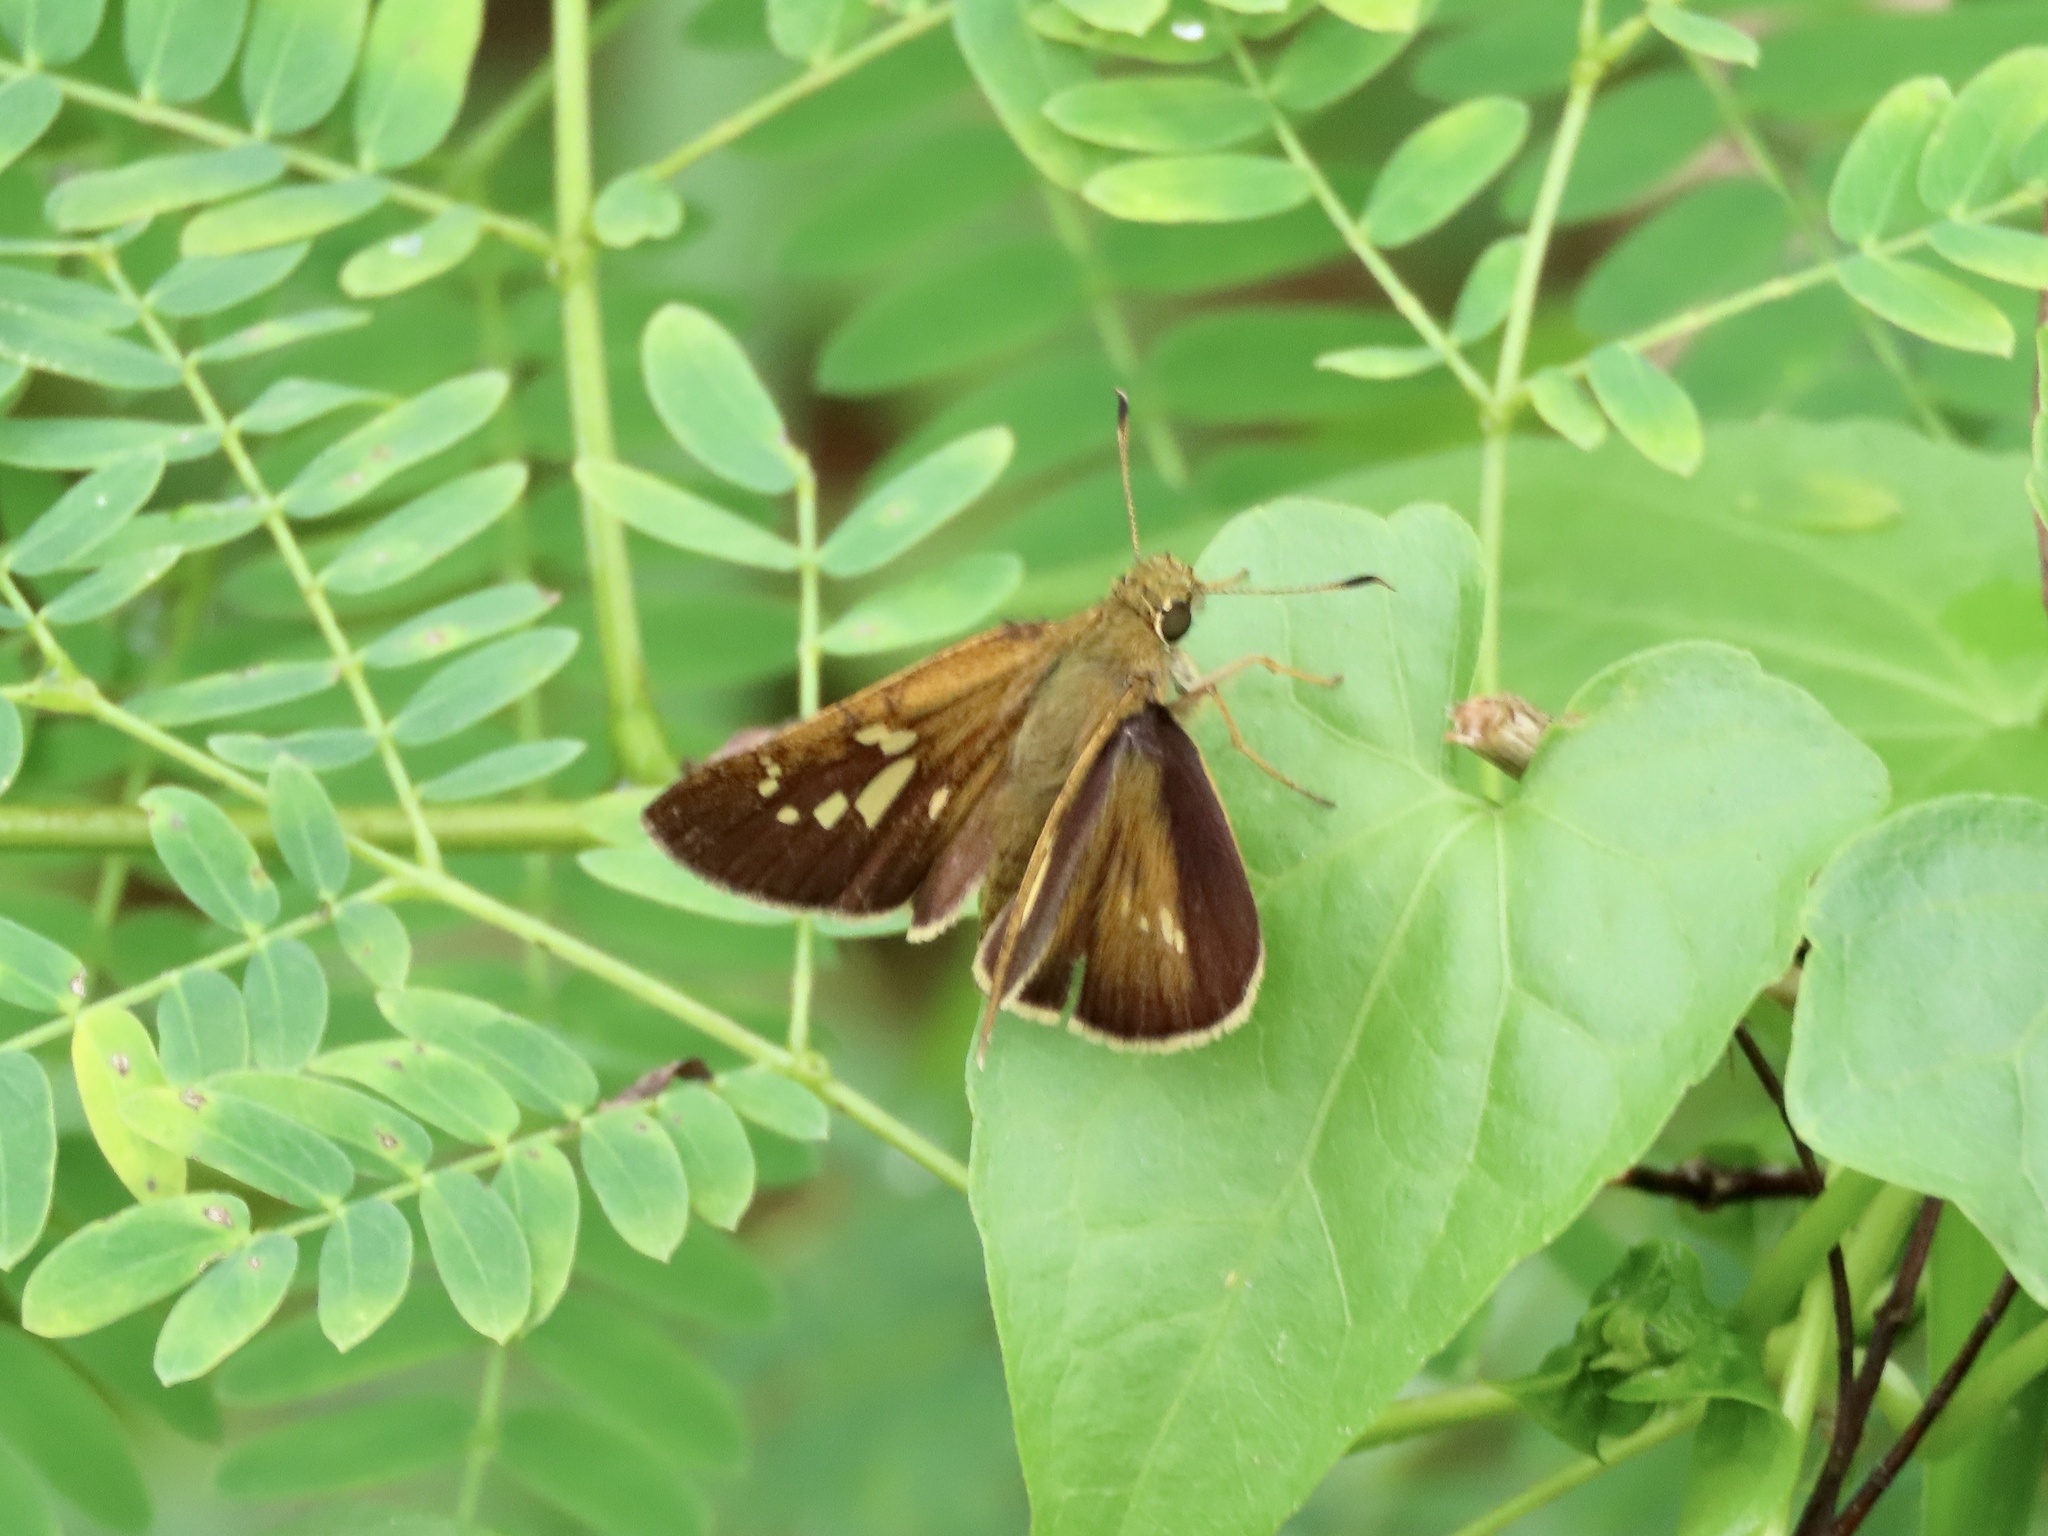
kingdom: Animalia
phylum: Arthropoda
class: Insecta
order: Lepidoptera
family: Hesperiidae
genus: Polytremis
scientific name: Polytremis lubricans
